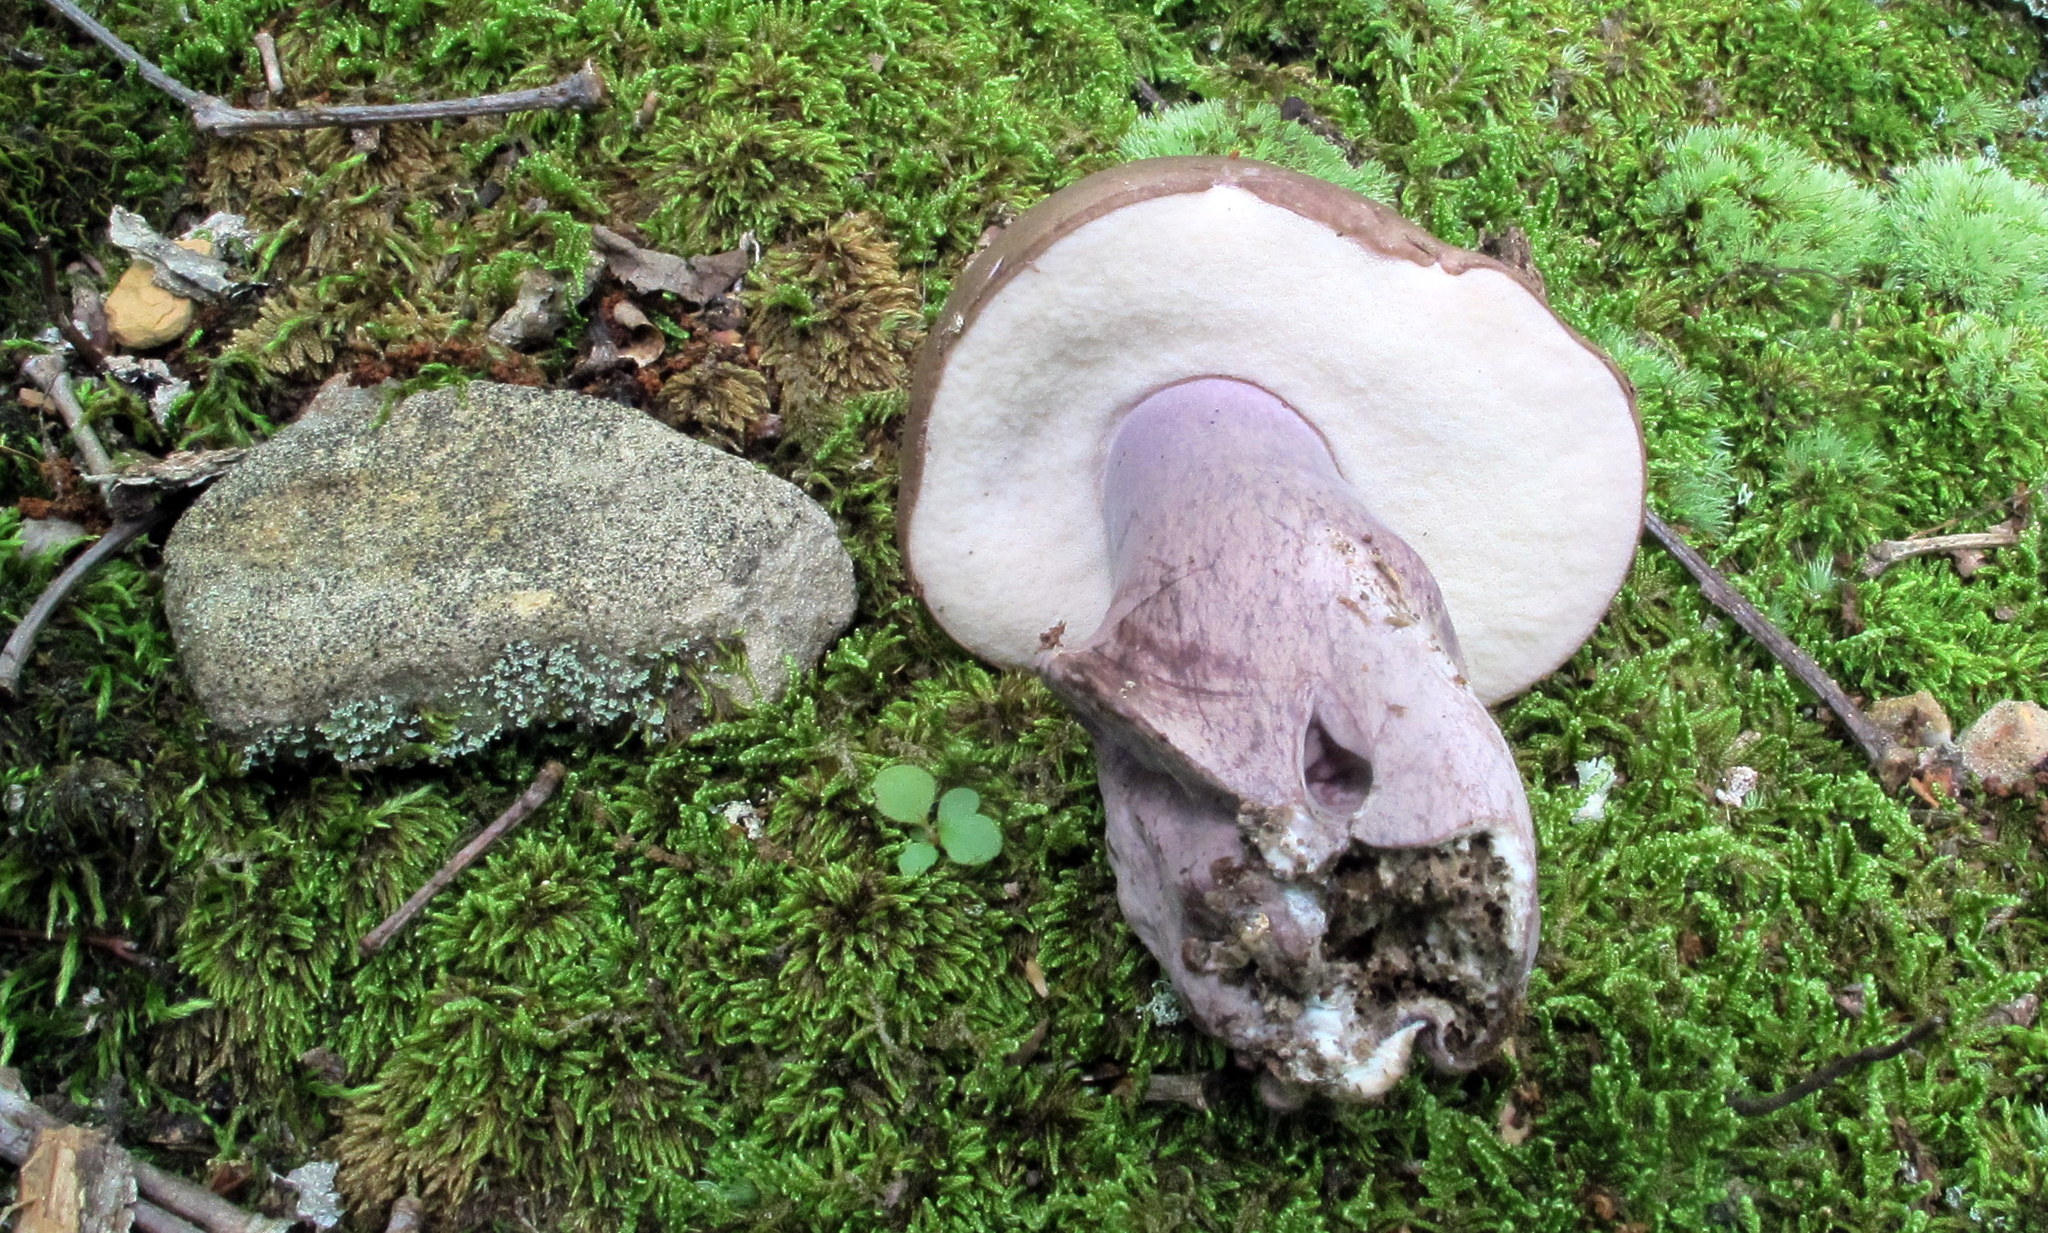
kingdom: Fungi
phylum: Basidiomycota
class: Agaricomycetes
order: Boletales
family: Boletaceae
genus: Tylopilus
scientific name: Tylopilus plumbeoviolaceus
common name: Violet gray bolete
